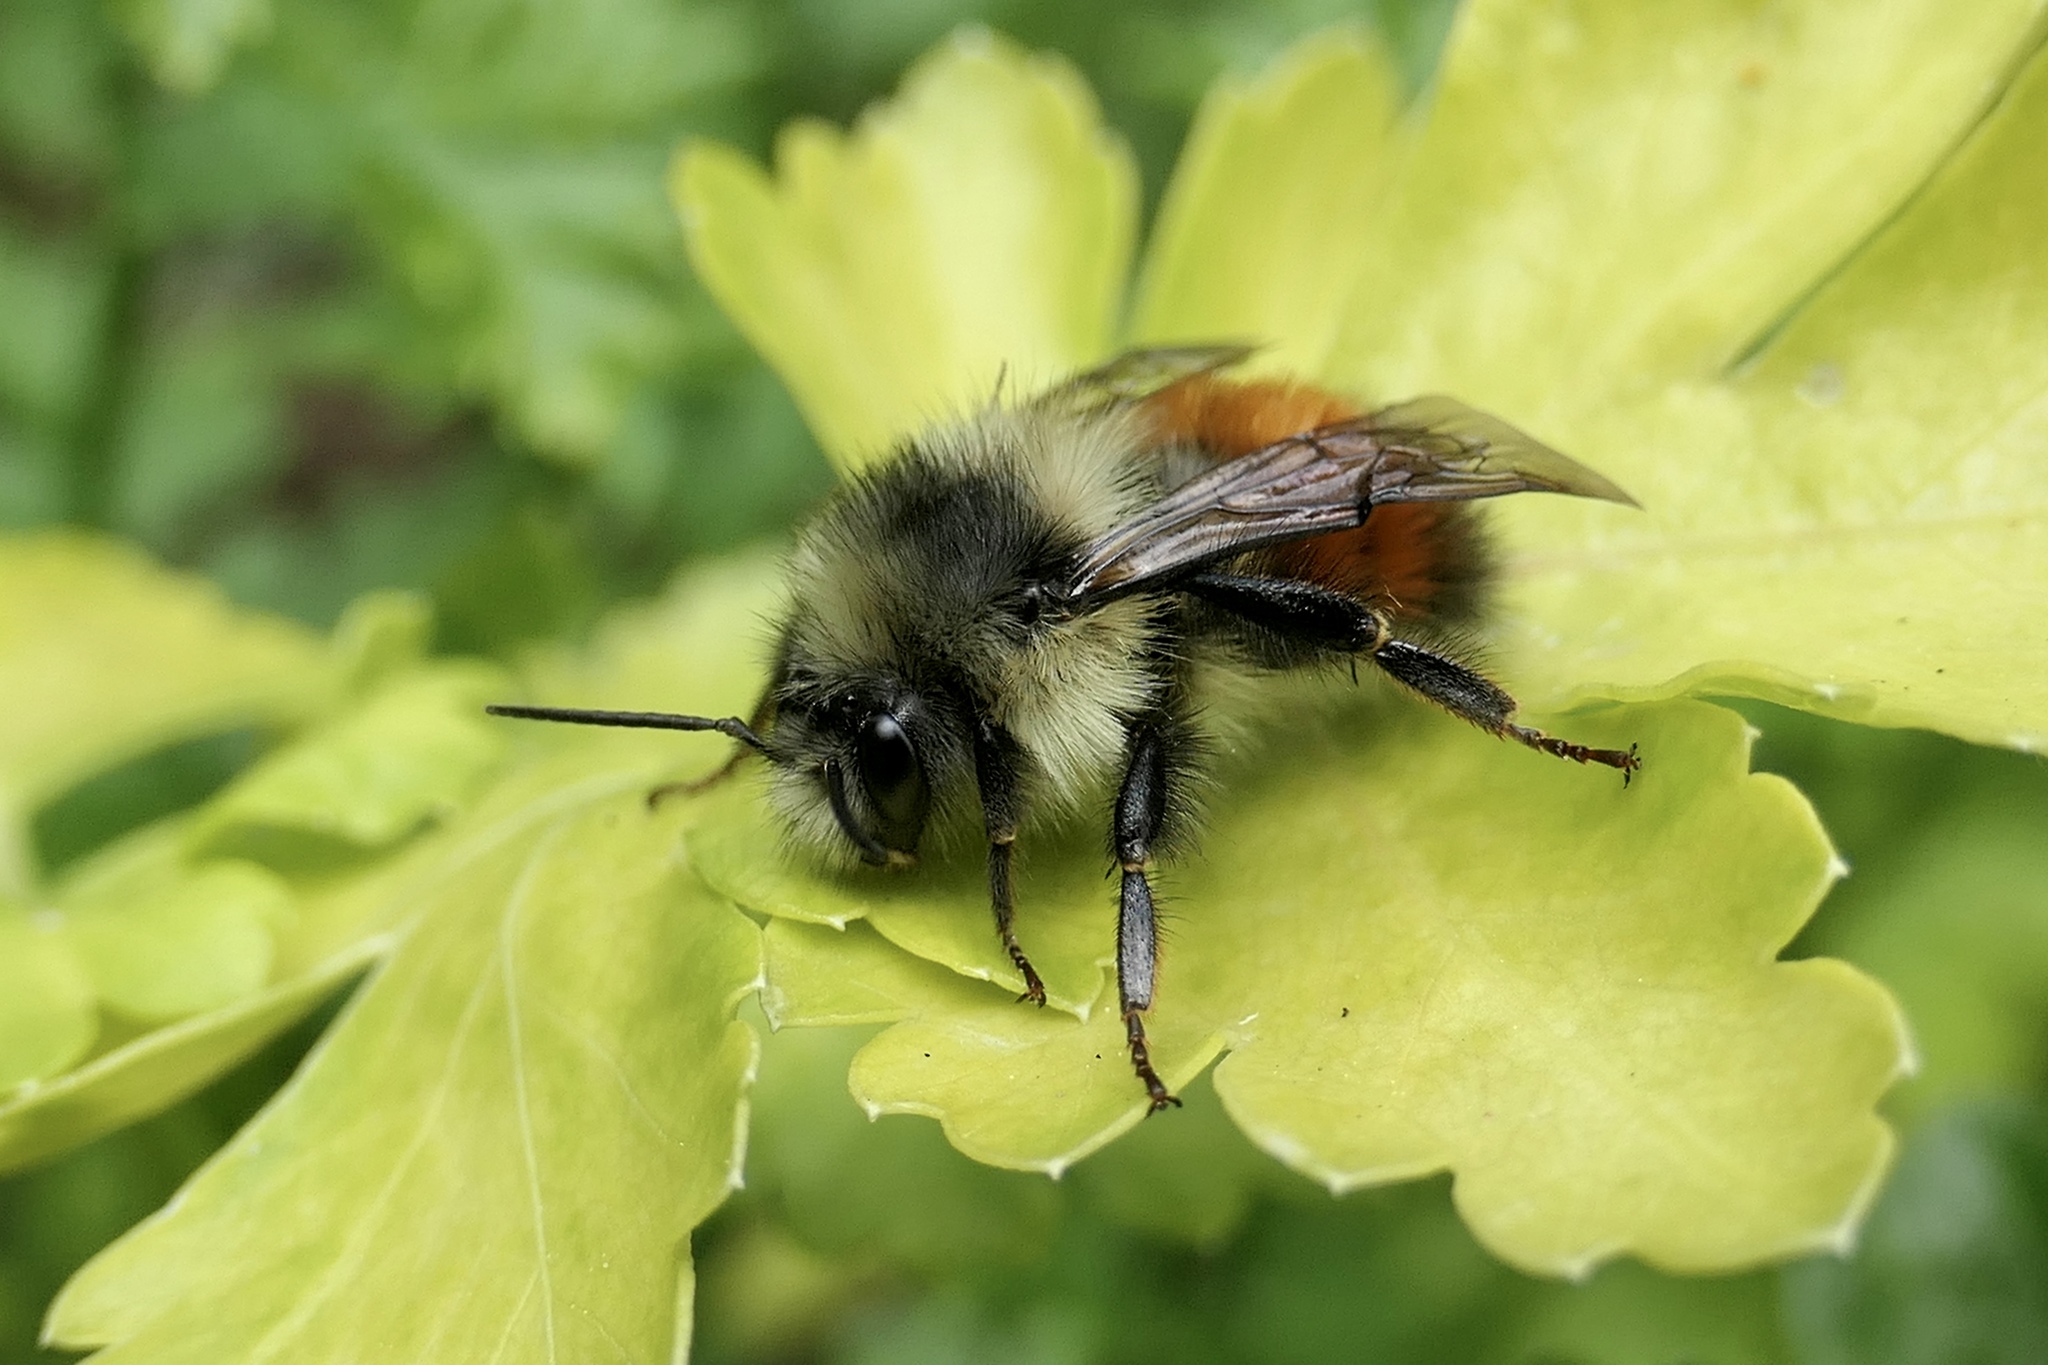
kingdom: Animalia
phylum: Arthropoda
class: Insecta
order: Hymenoptera
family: Apidae
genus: Bombus
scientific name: Bombus melanopygus
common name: Black tail bumble bee
